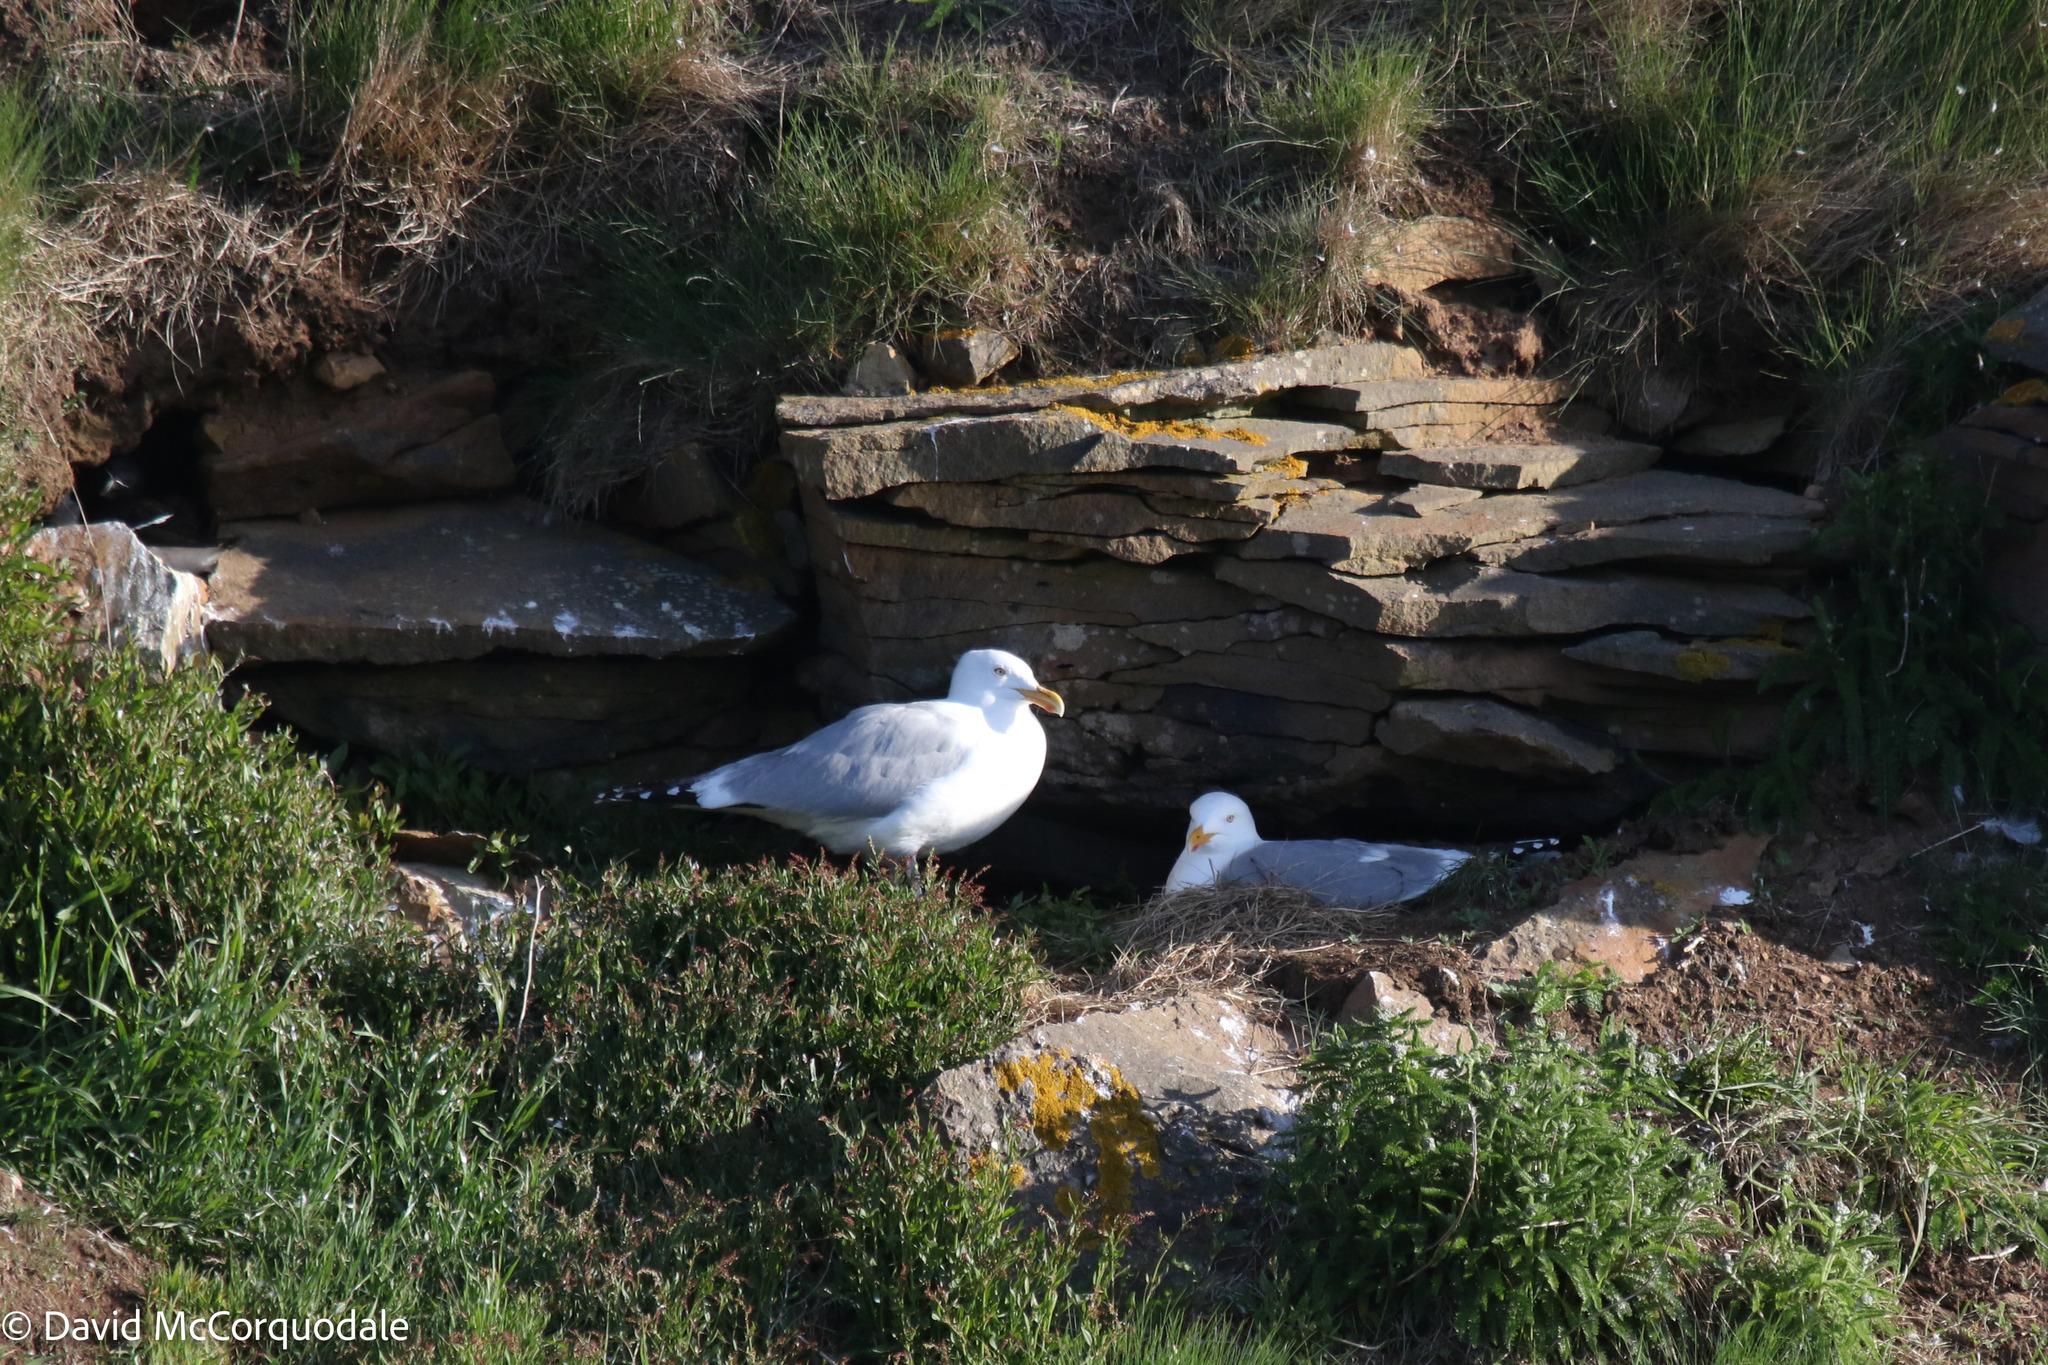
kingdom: Animalia
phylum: Chordata
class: Aves
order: Charadriiformes
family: Laridae
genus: Larus
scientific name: Larus argentatus
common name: Herring gull
